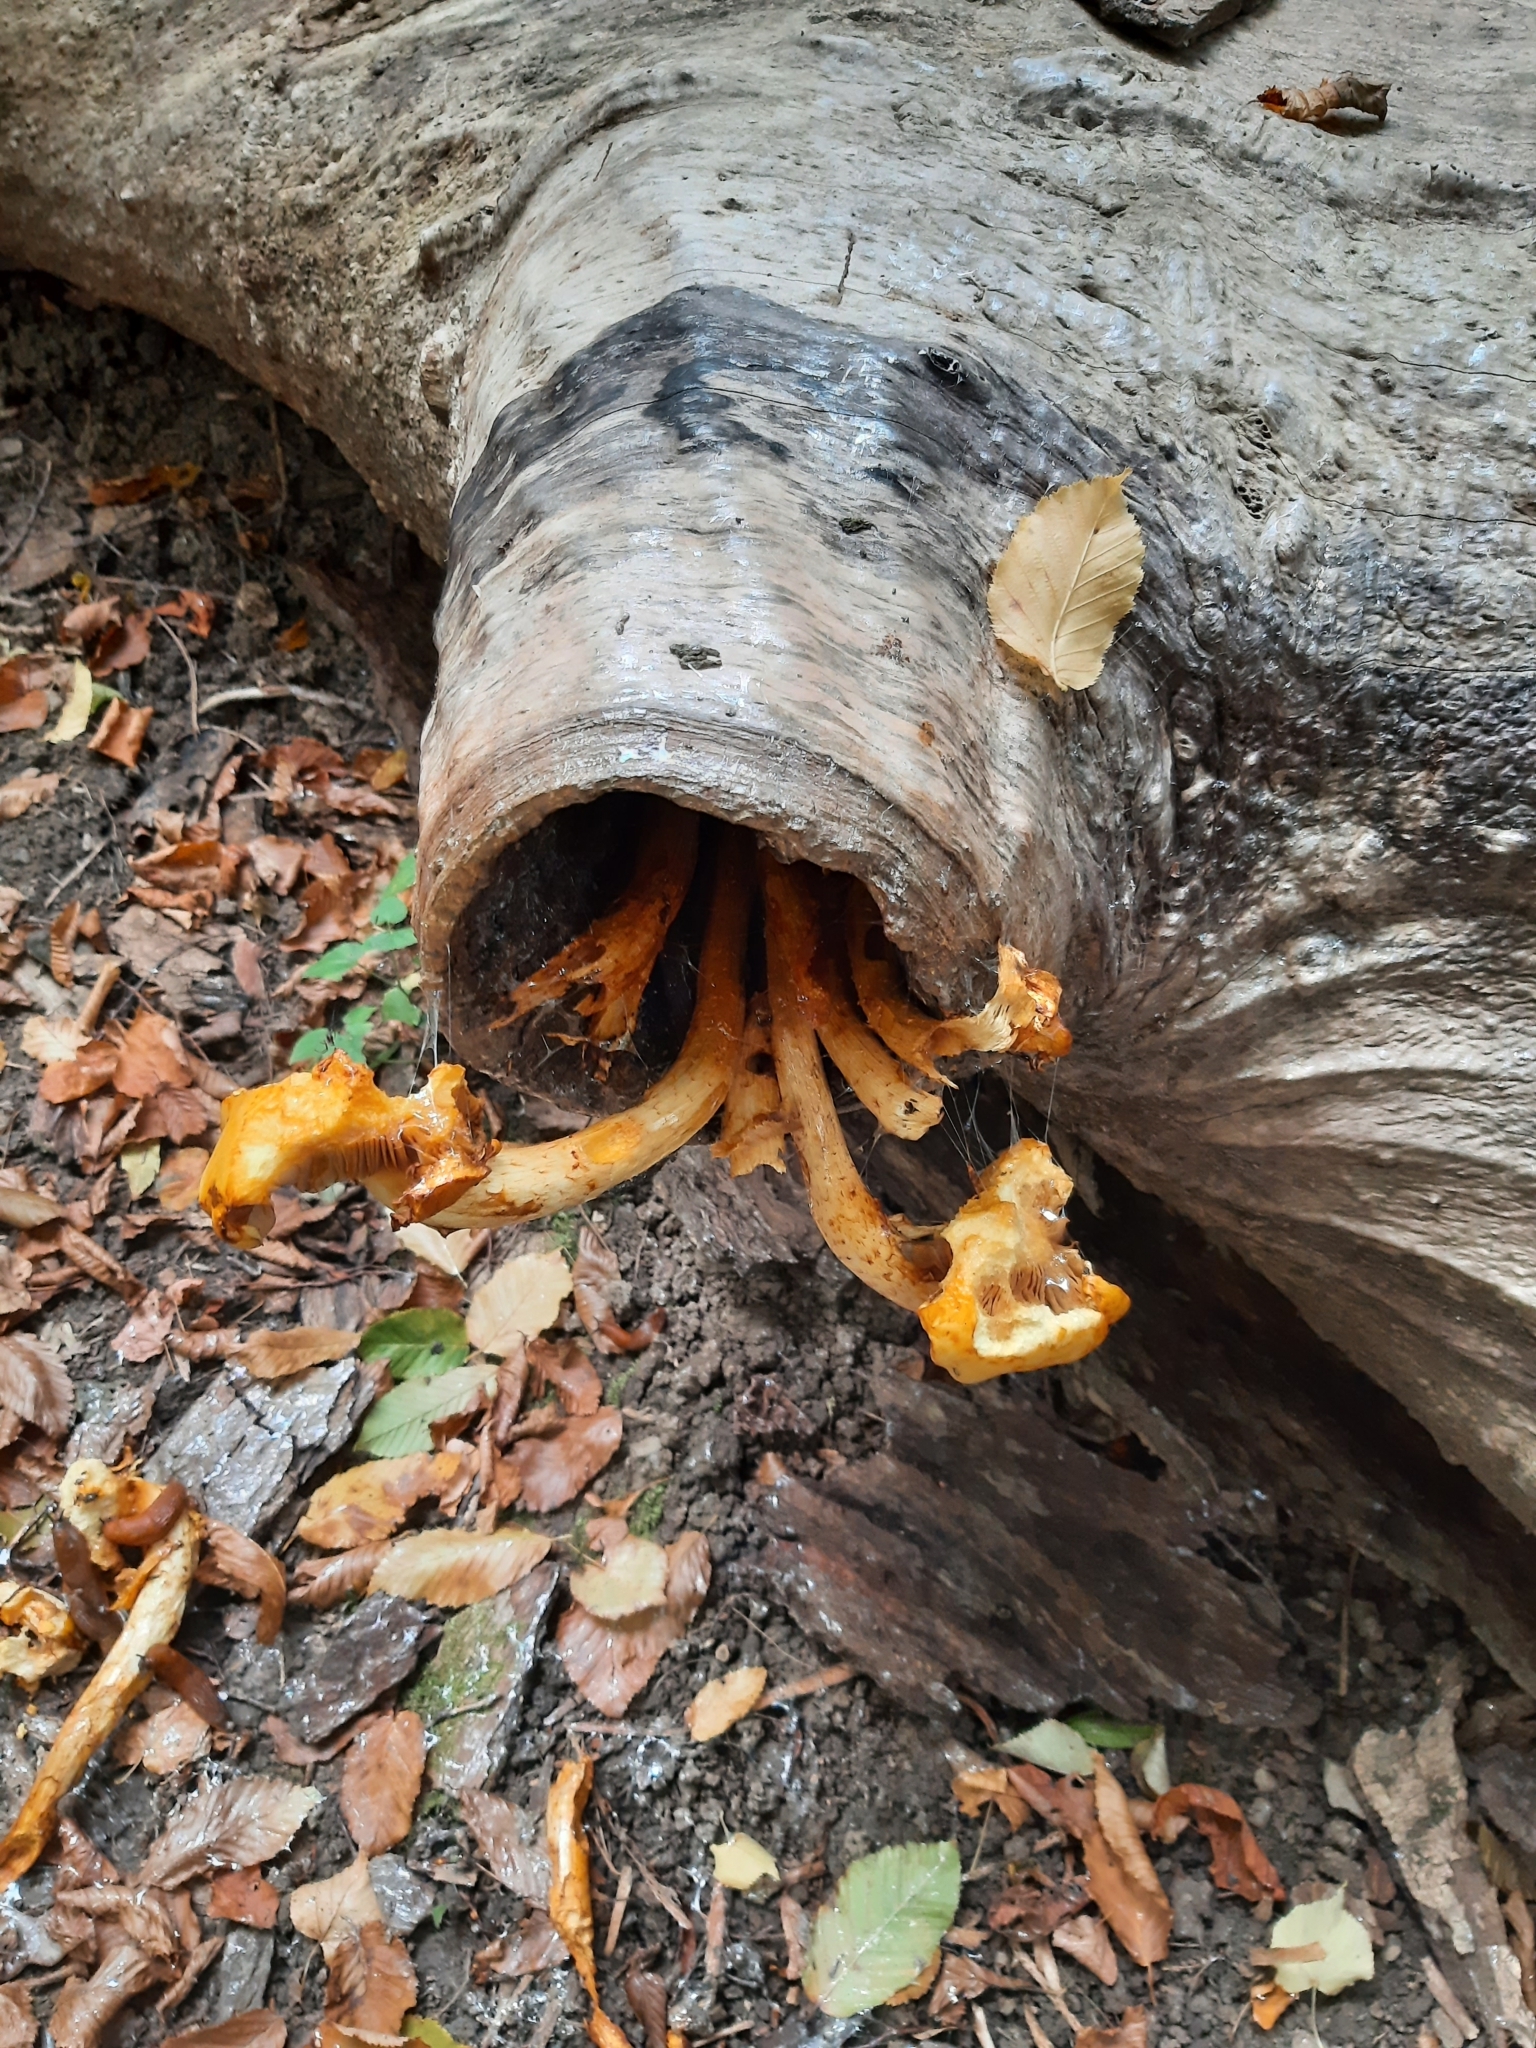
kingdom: Fungi
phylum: Basidiomycota
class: Agaricomycetes
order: Agaricales
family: Strophariaceae
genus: Pholiota
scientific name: Pholiota
